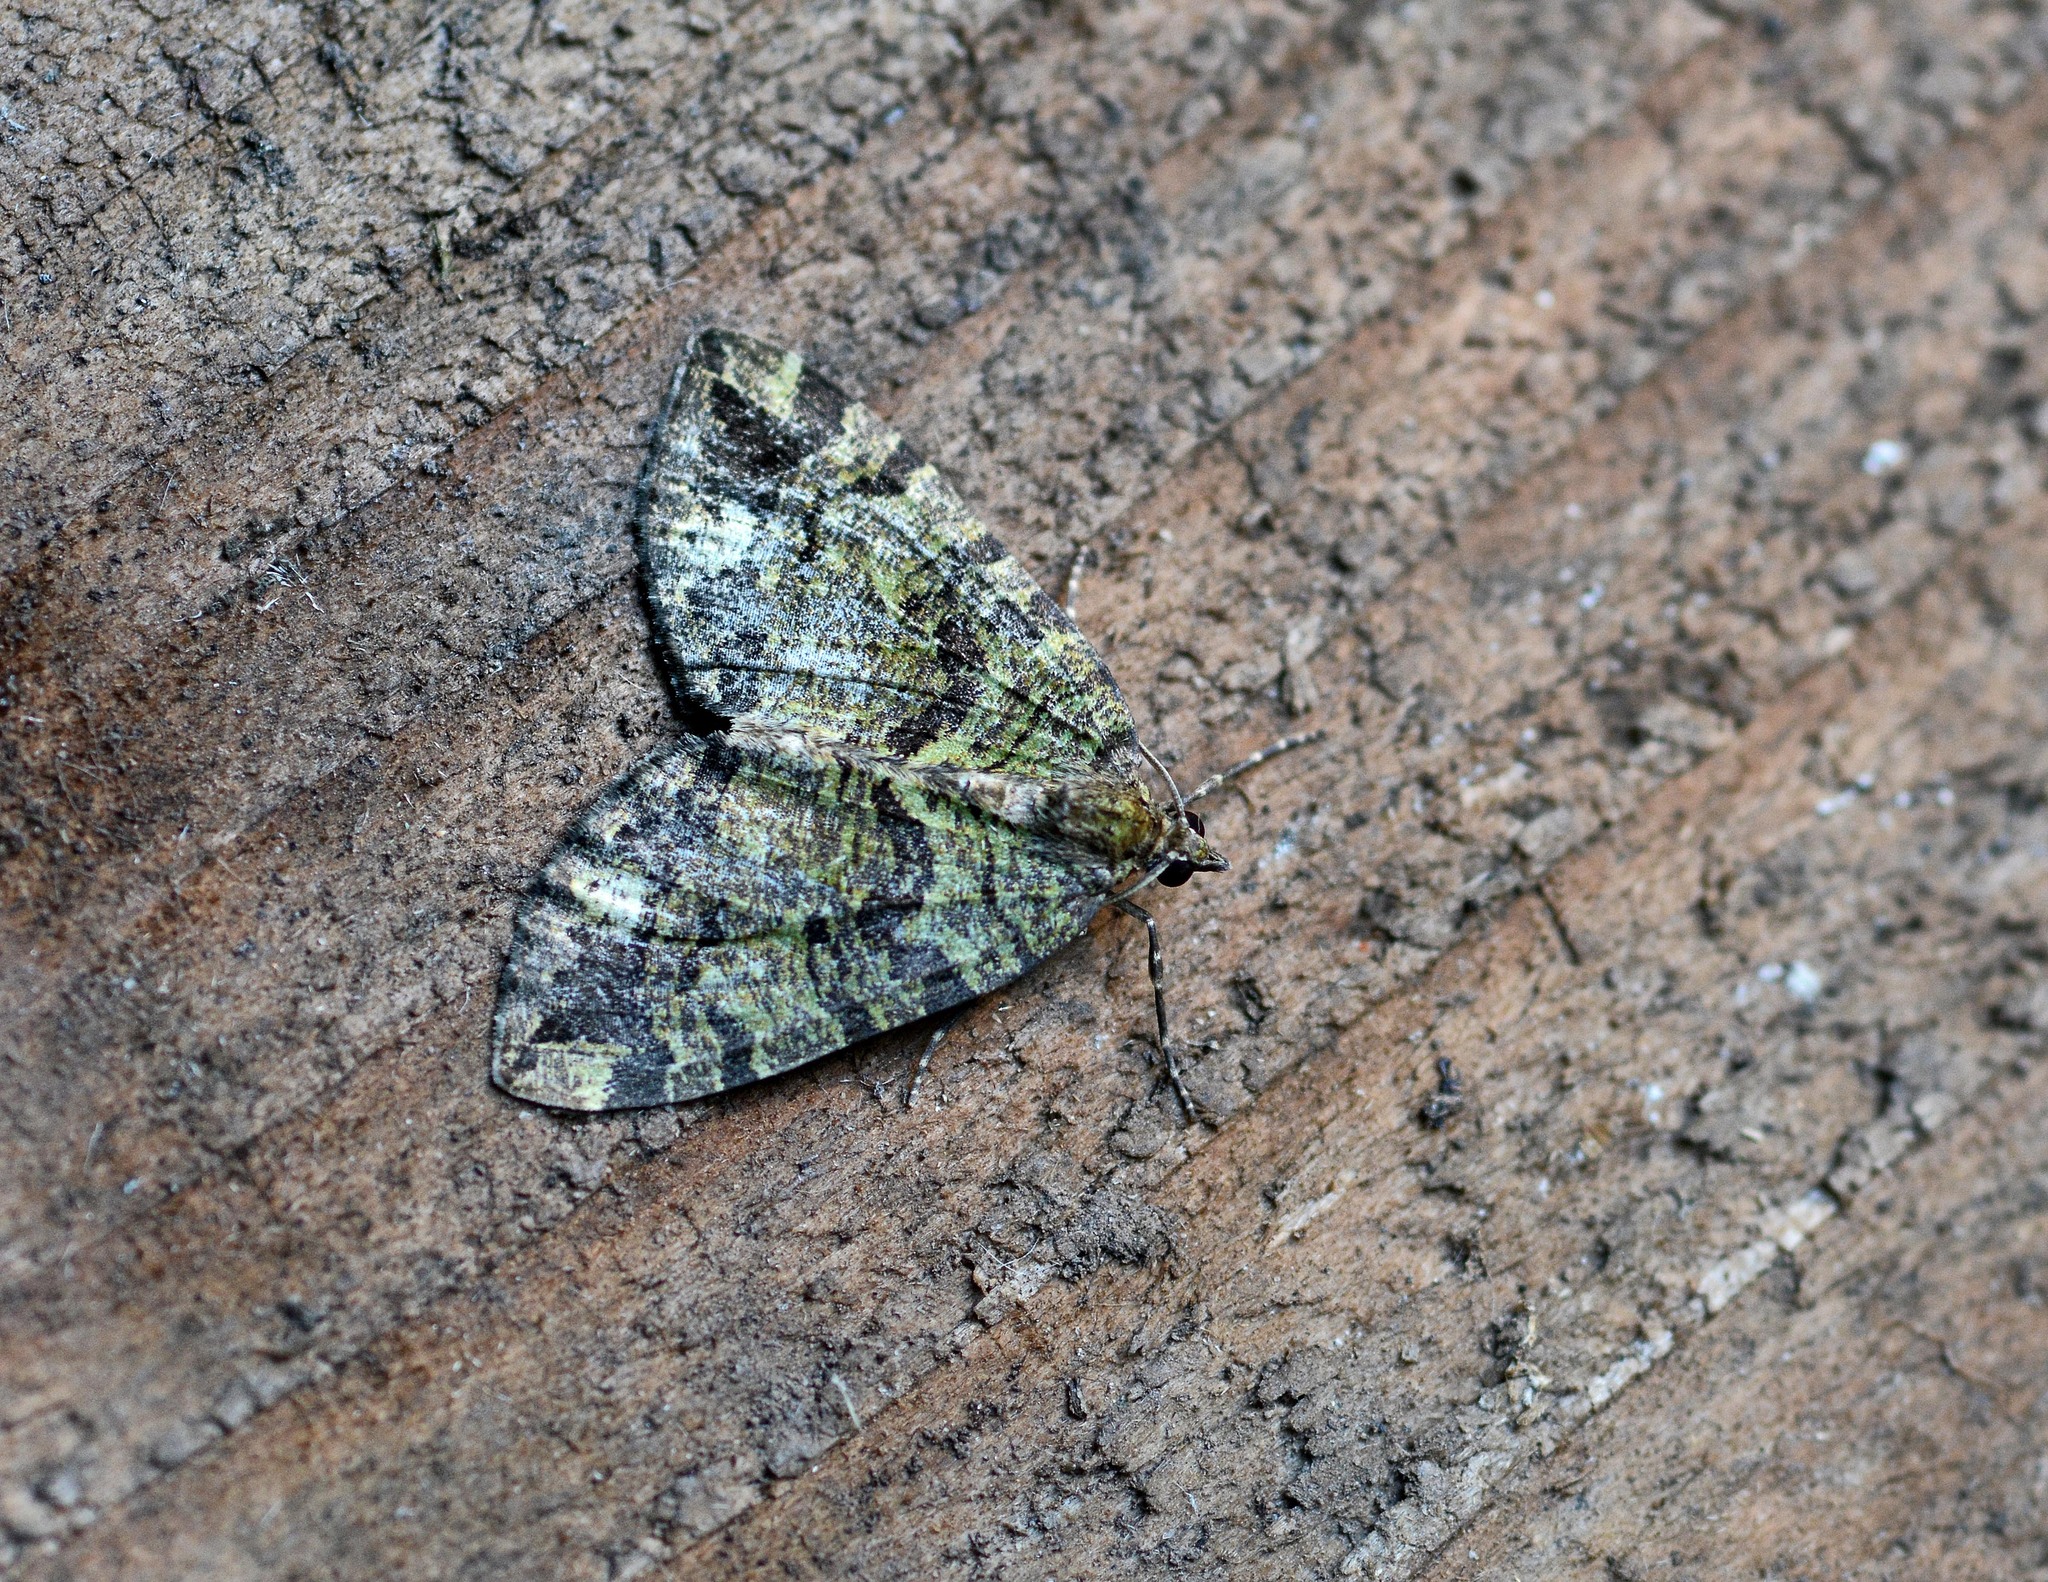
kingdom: Animalia
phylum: Arthropoda
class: Insecta
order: Lepidoptera
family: Geometridae
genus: Hydriomena
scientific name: Hydriomena furcata
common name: July highflyer
